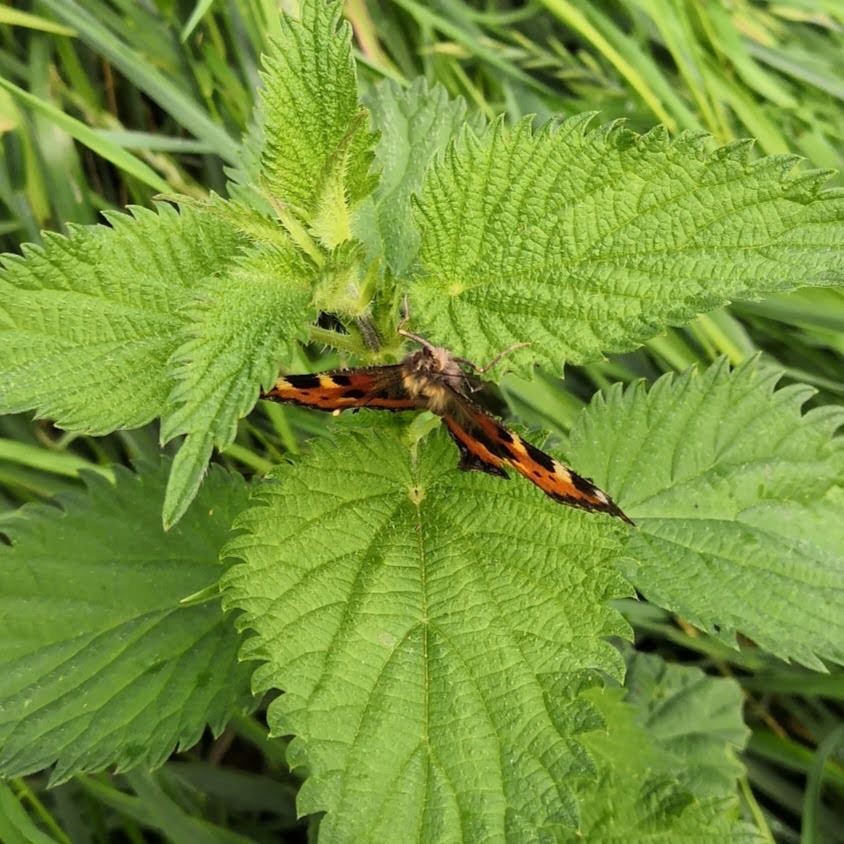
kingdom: Animalia
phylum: Arthropoda
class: Insecta
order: Lepidoptera
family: Nymphalidae
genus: Aglais
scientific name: Aglais urticae
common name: Small tortoiseshell
